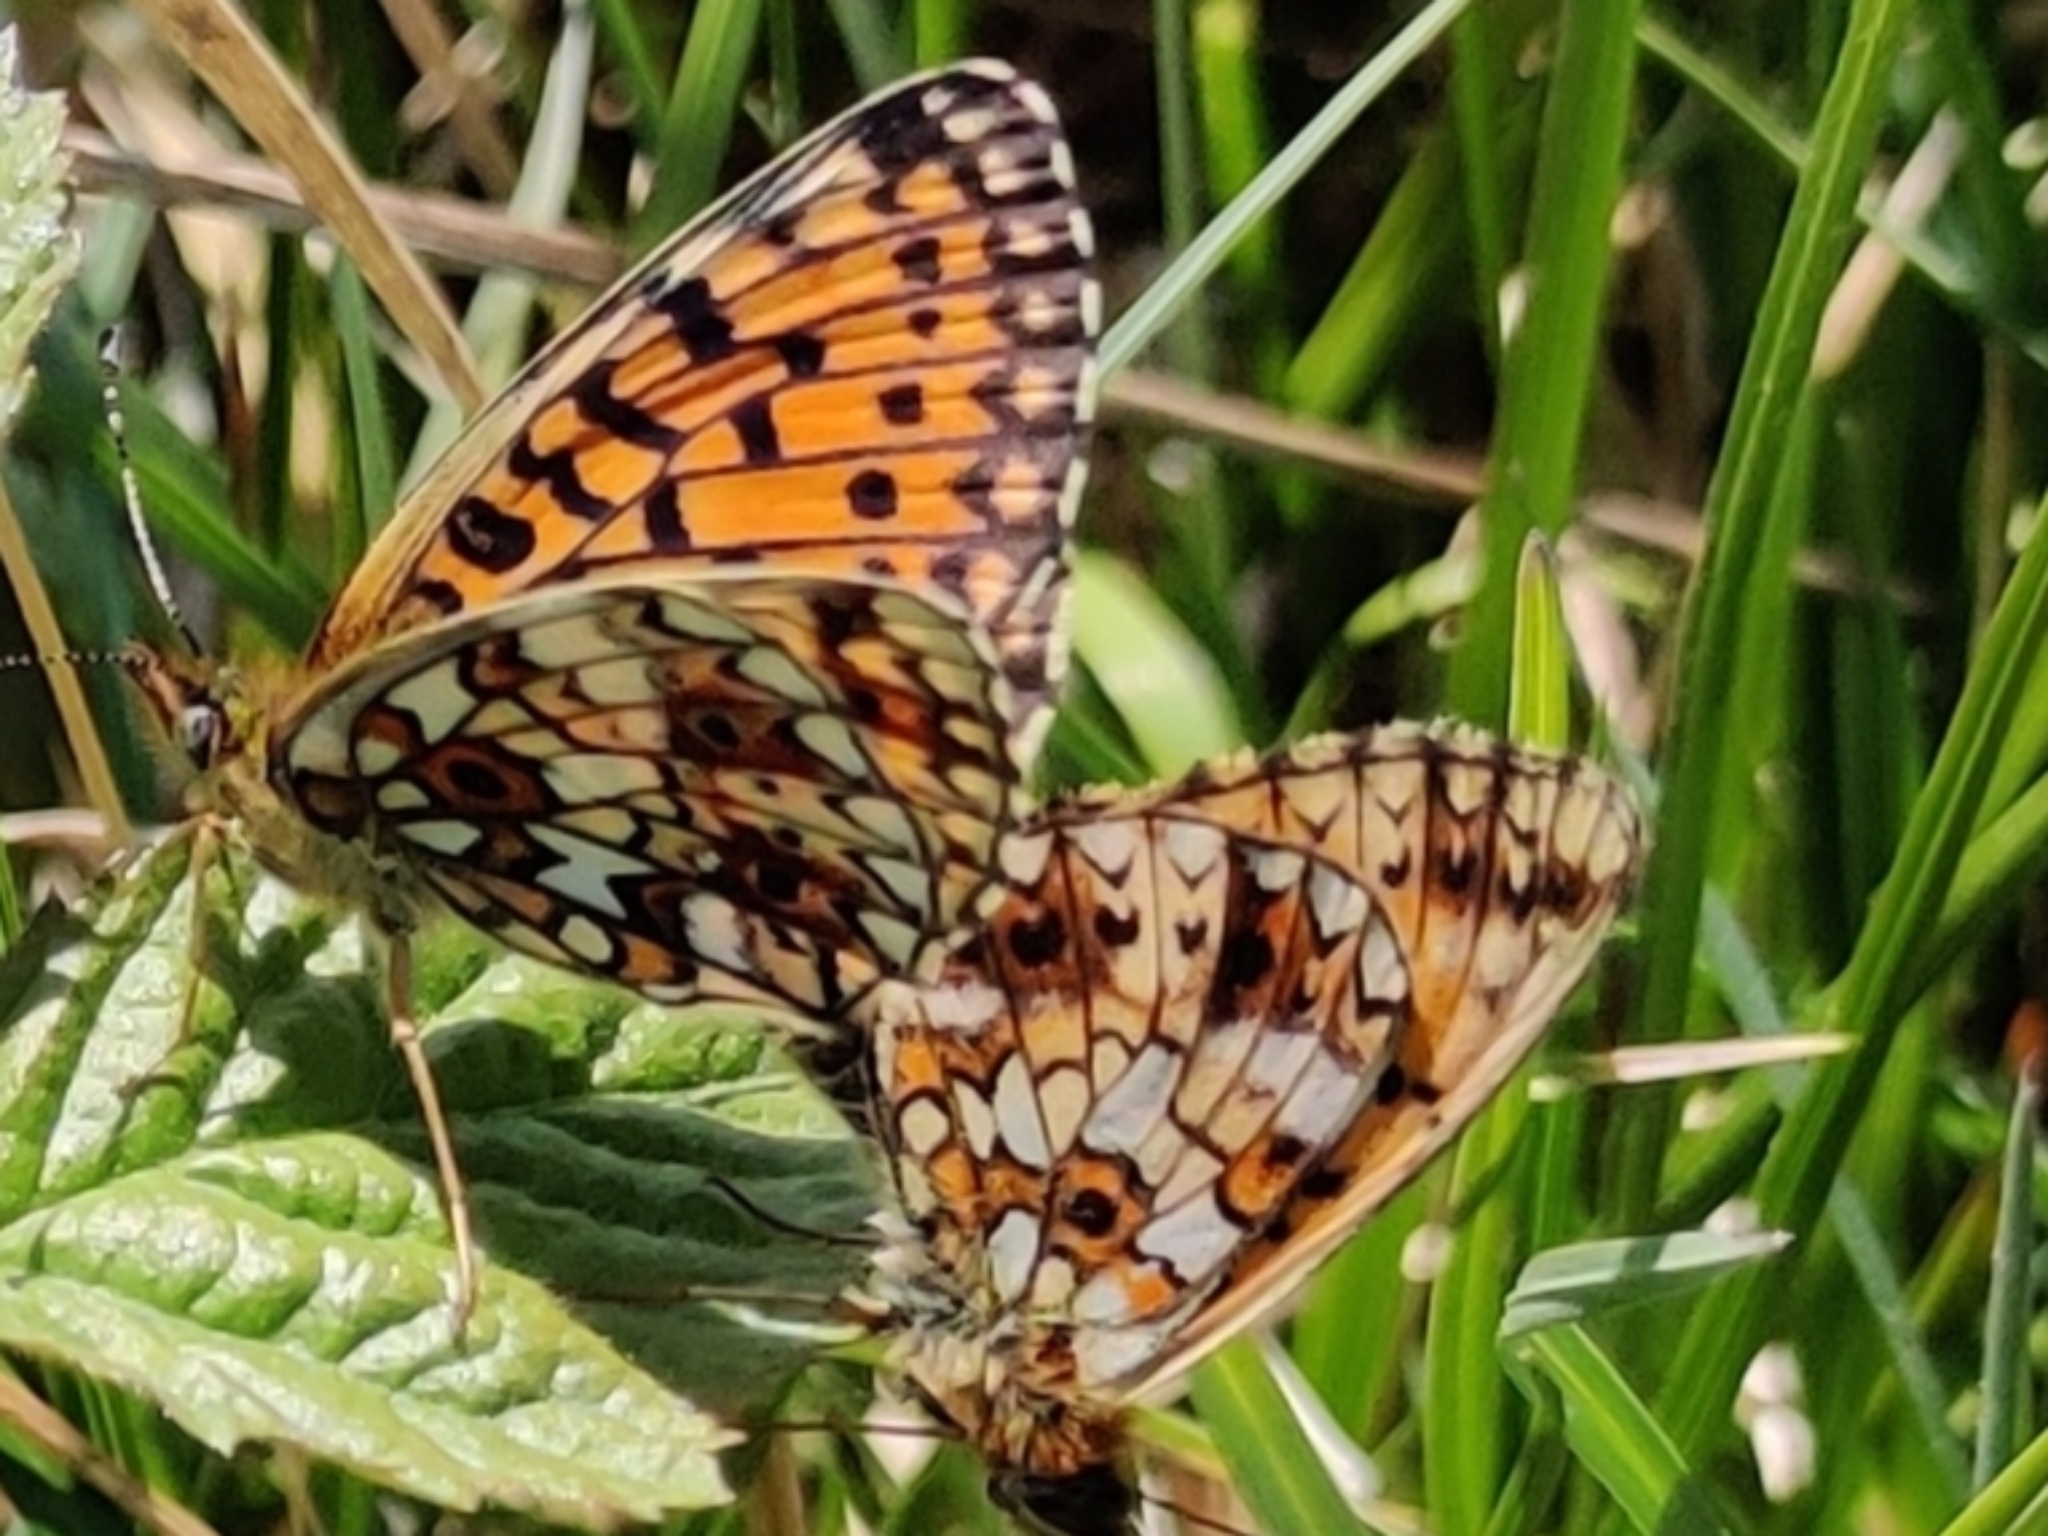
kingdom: Animalia
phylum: Arthropoda
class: Insecta
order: Lepidoptera
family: Nymphalidae
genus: Boloria
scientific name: Boloria selene
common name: Small pearl-bordered fritillary
